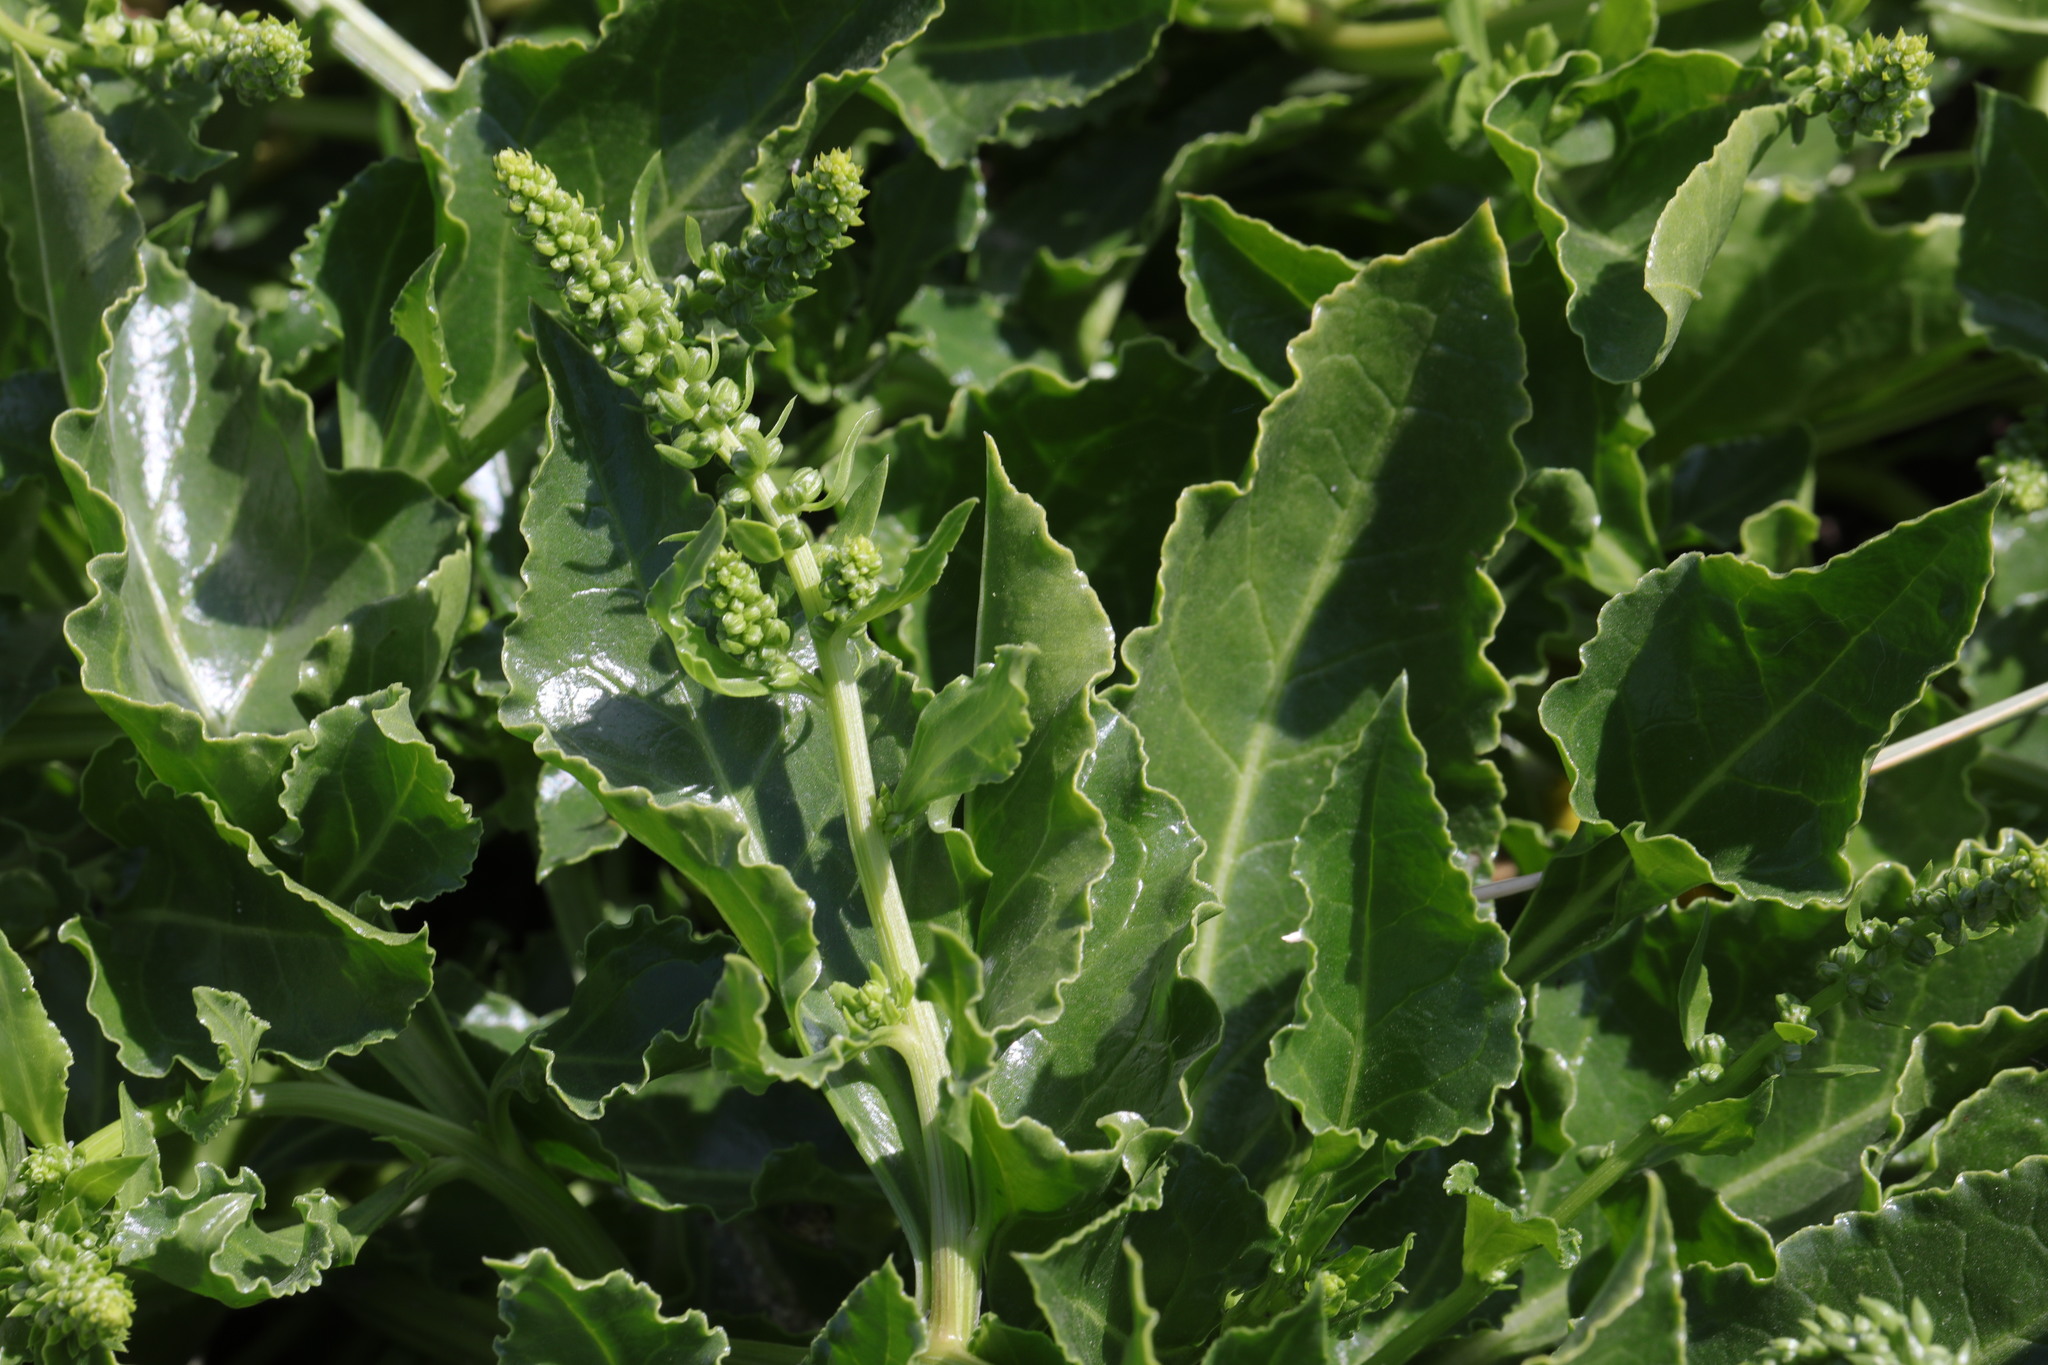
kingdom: Plantae
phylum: Tracheophyta
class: Magnoliopsida
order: Caryophyllales
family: Amaranthaceae
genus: Beta
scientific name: Beta vulgaris
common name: Beet
